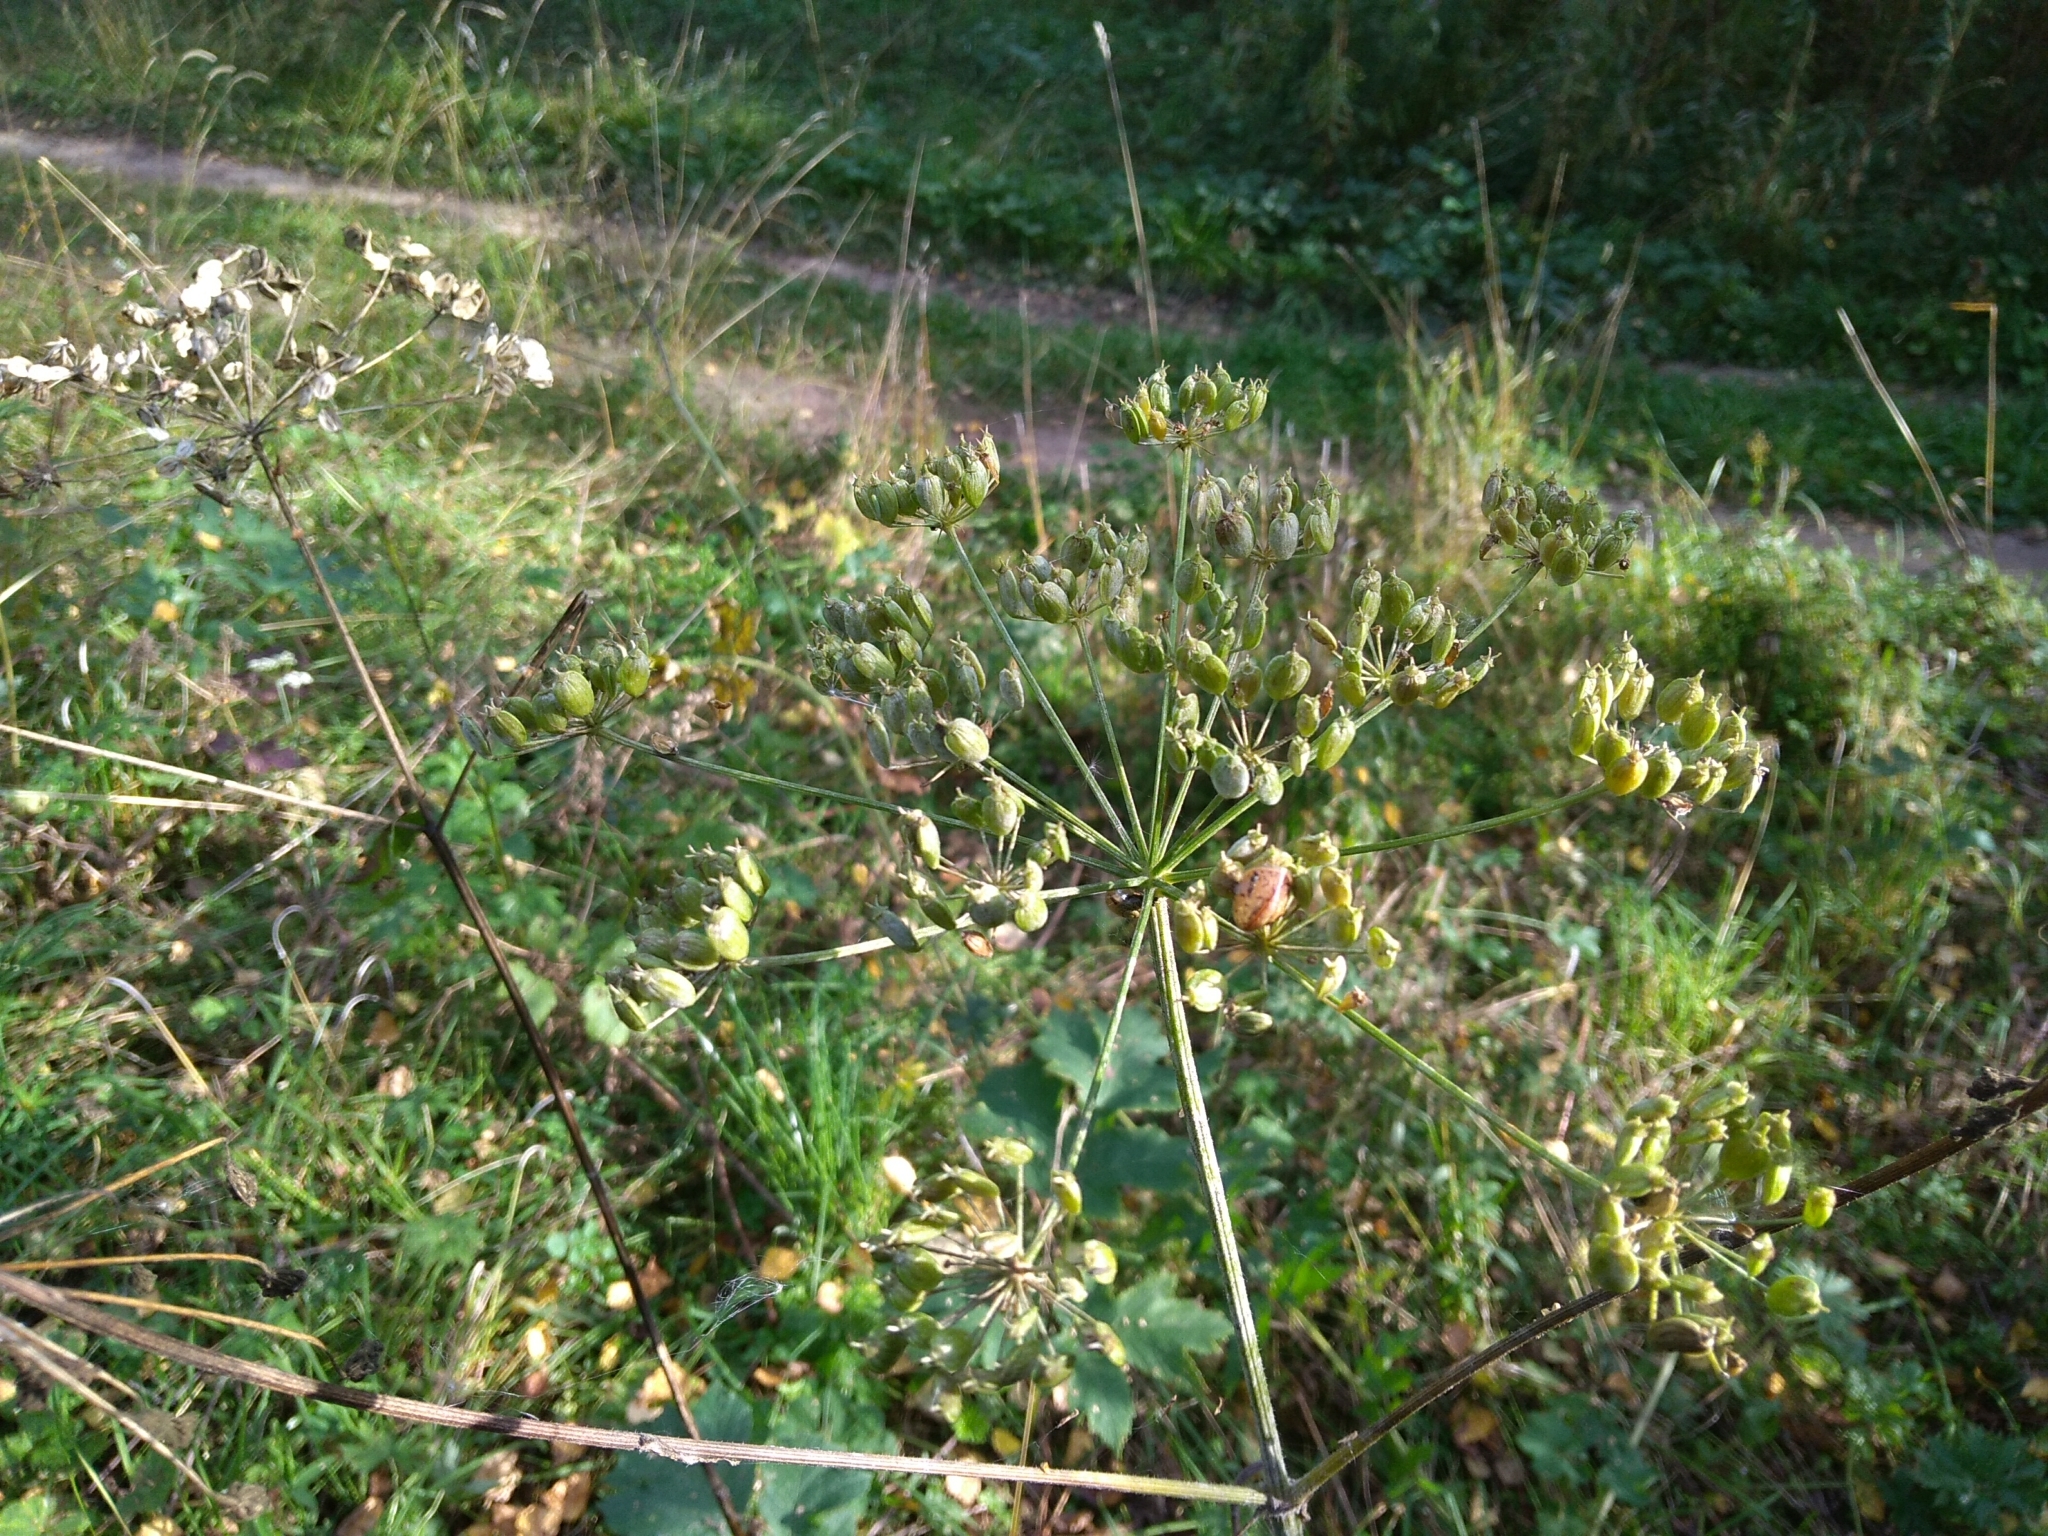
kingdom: Plantae
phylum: Tracheophyta
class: Magnoliopsida
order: Apiales
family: Apiaceae
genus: Heracleum
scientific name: Heracleum sphondylium
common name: Hogweed
